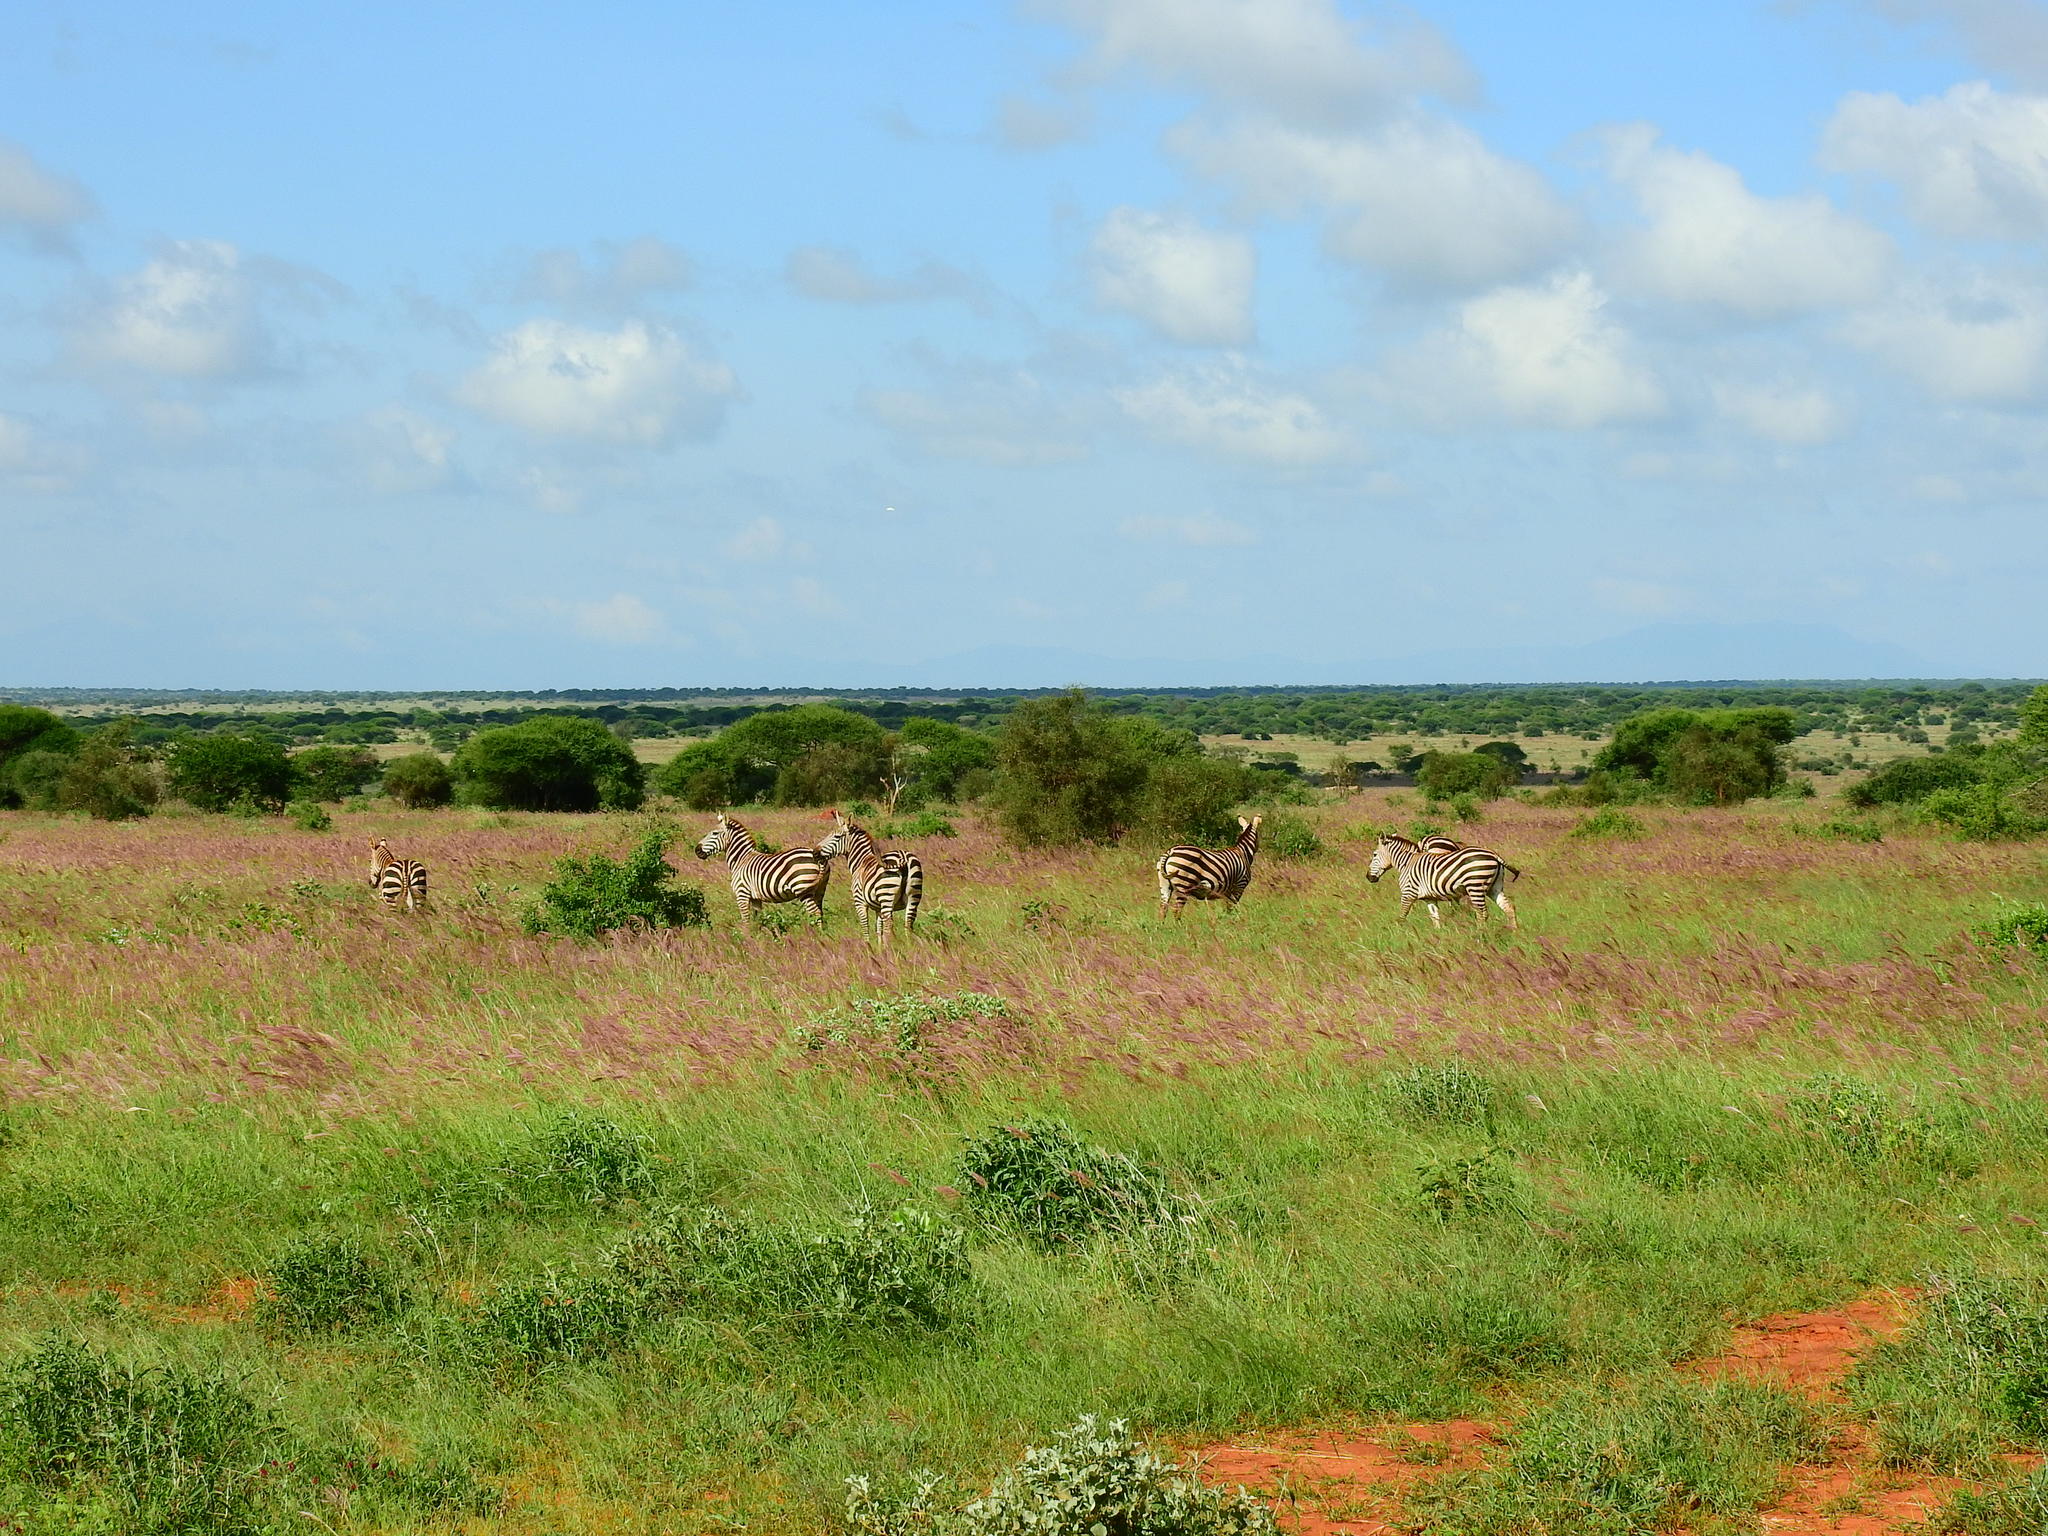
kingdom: Animalia
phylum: Chordata
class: Mammalia
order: Perissodactyla
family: Equidae
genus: Equus
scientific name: Equus quagga
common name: Plains zebra
